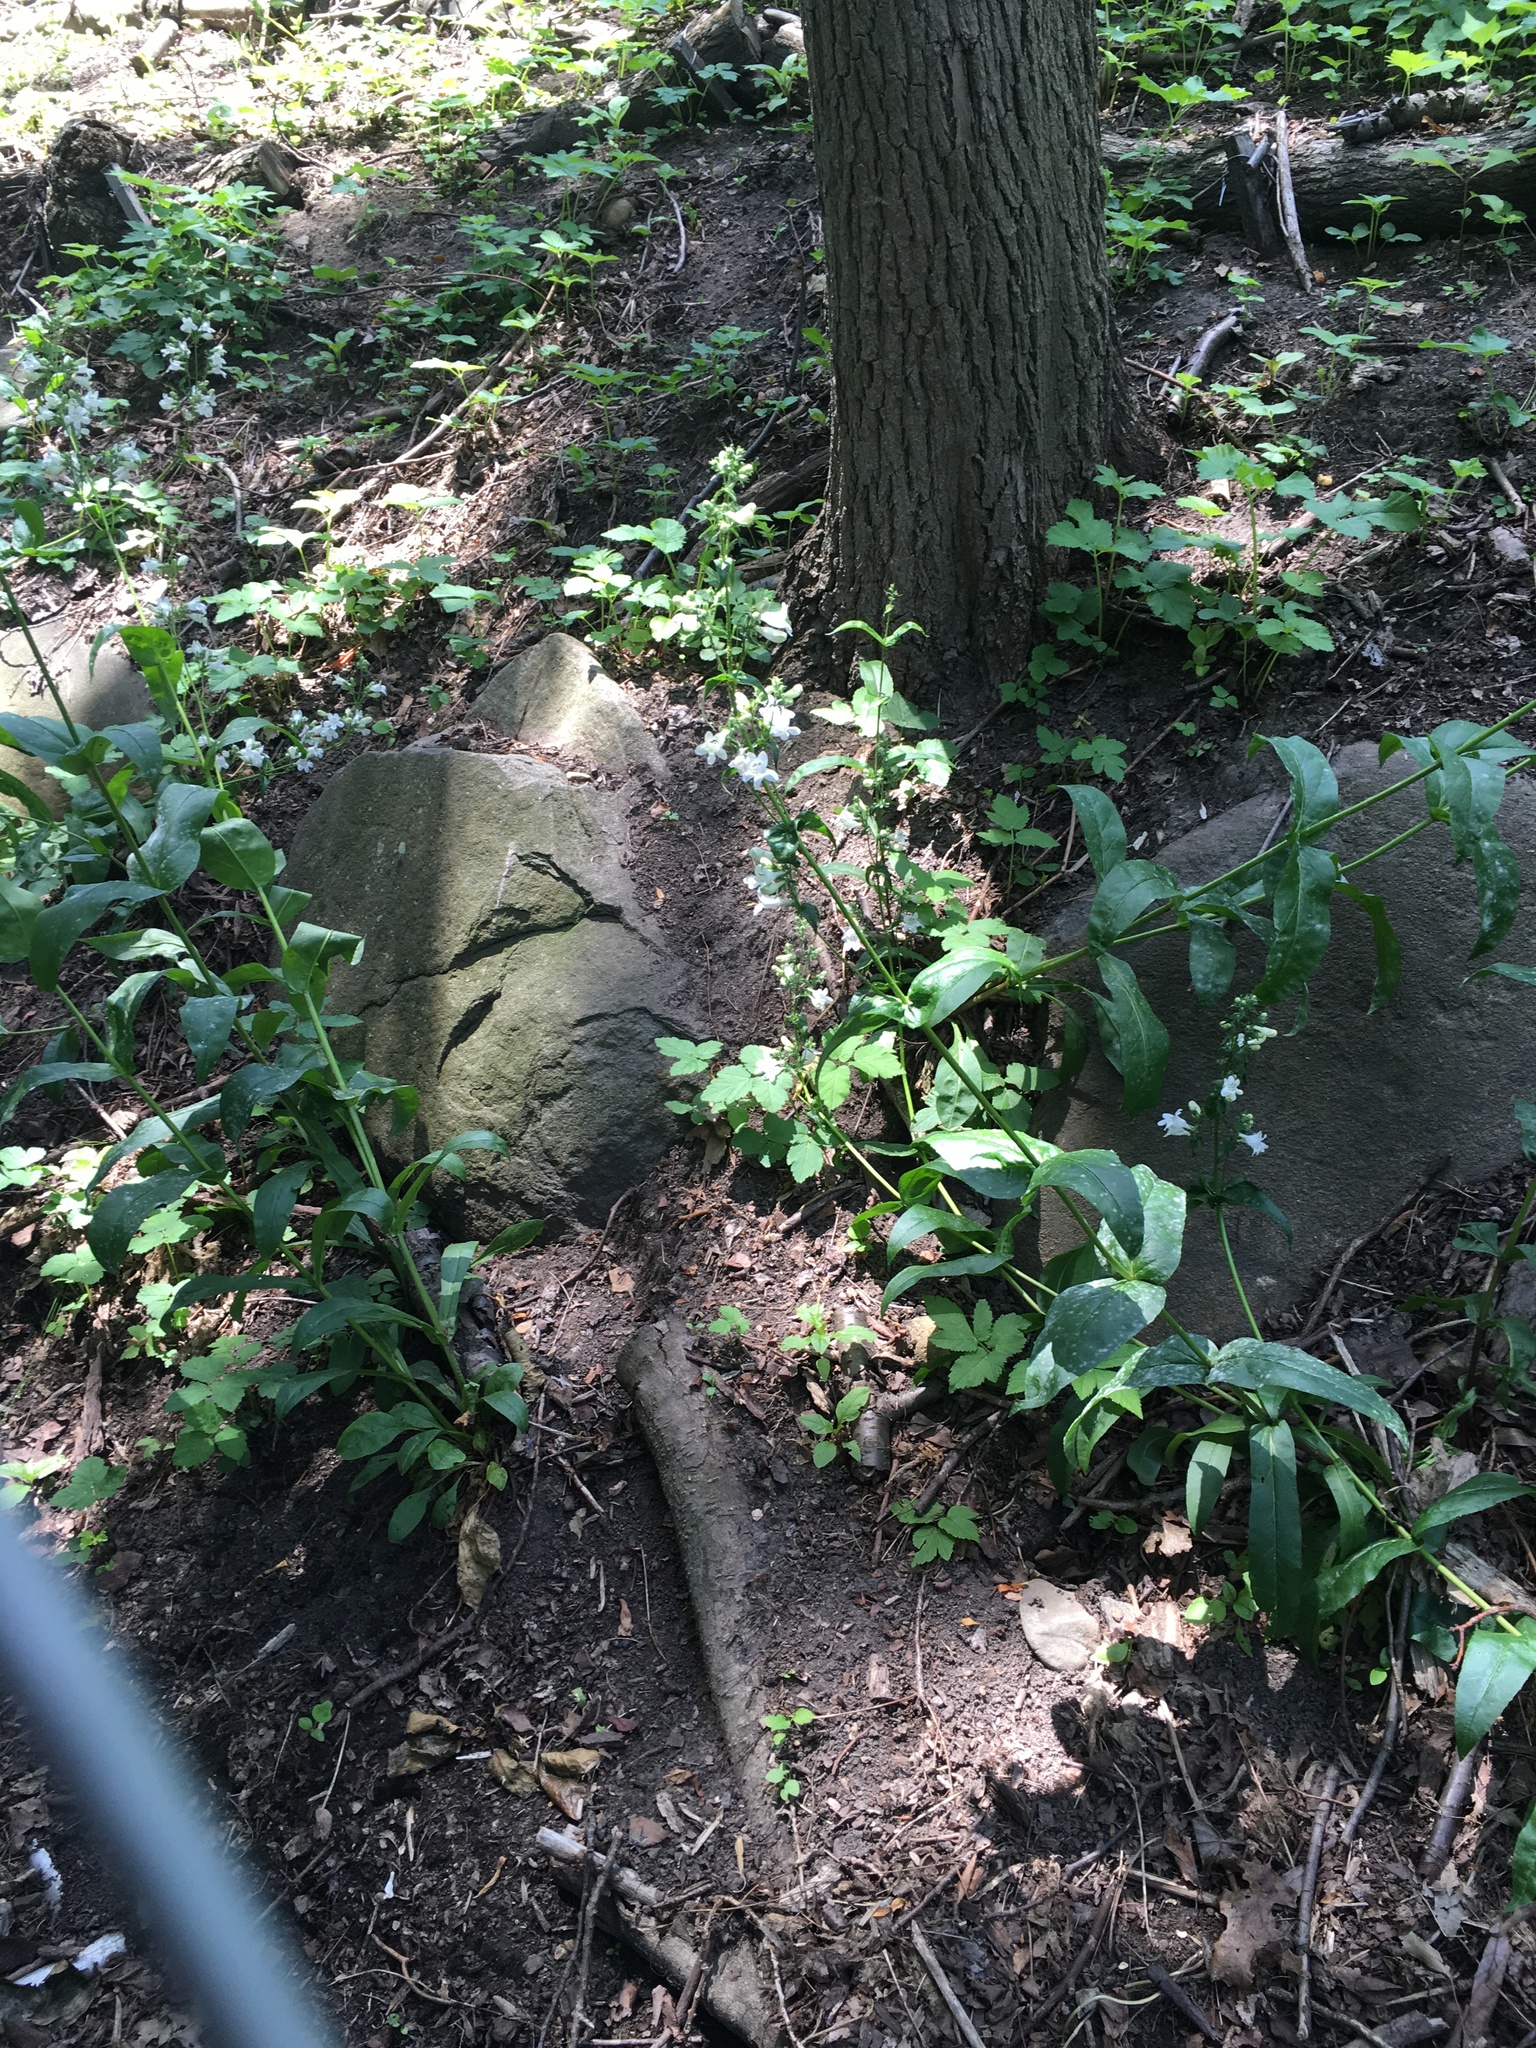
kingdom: Plantae
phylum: Tracheophyta
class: Magnoliopsida
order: Lamiales
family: Plantaginaceae
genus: Penstemon
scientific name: Penstemon
